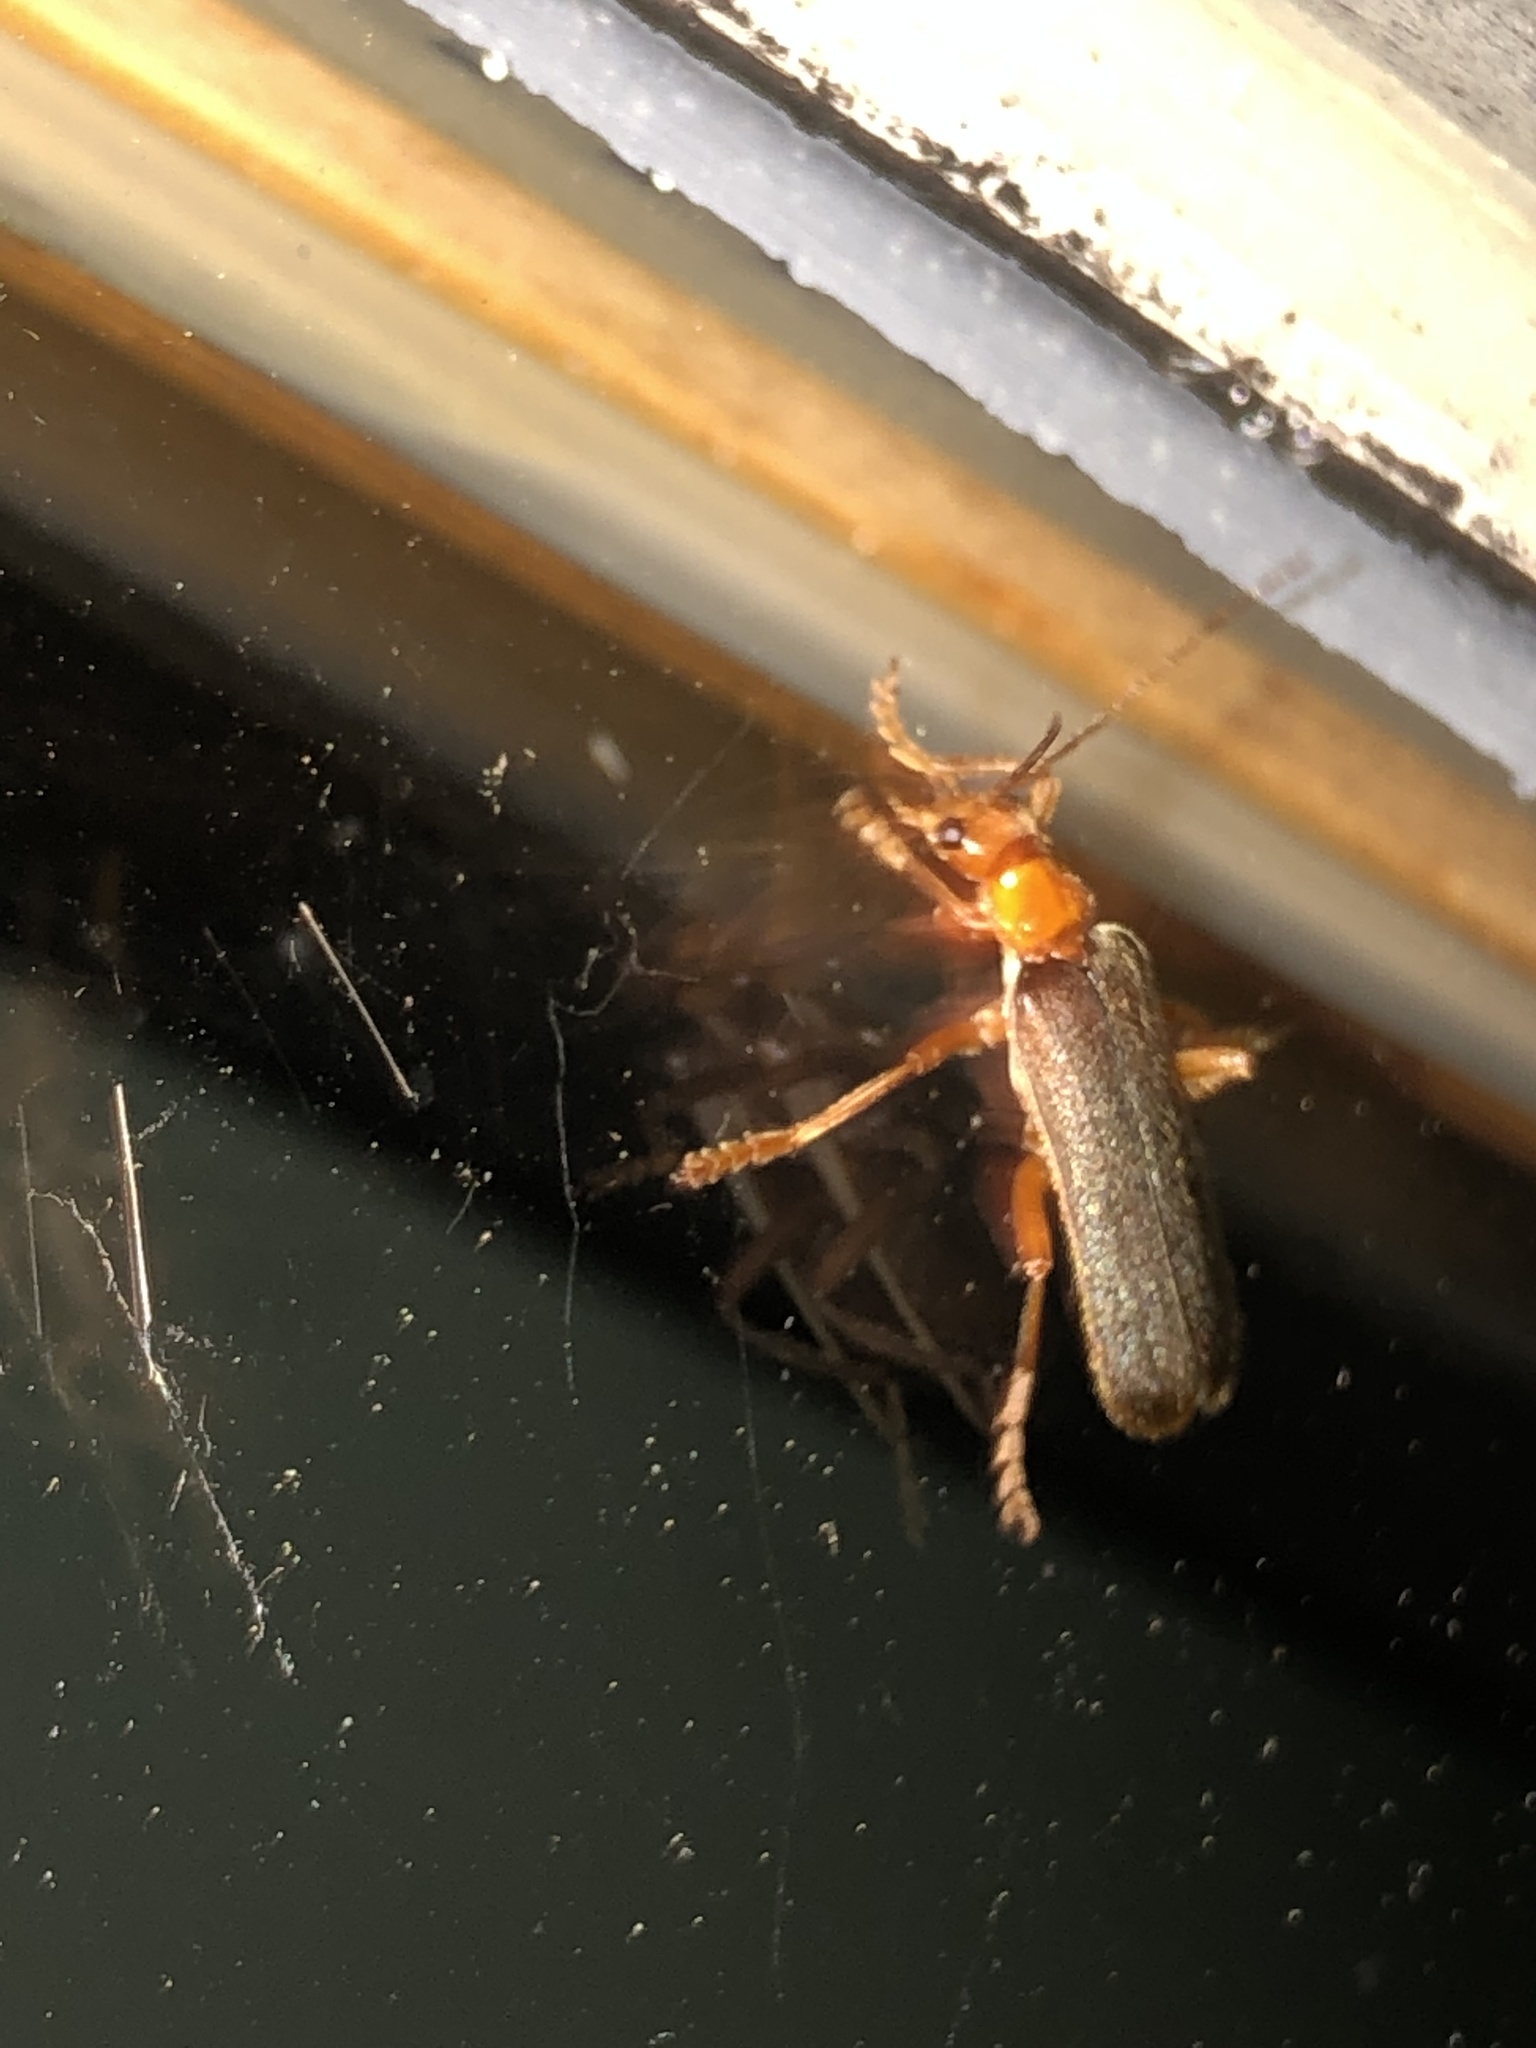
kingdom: Animalia
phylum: Arthropoda
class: Insecta
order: Coleoptera
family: Cantharidae
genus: Pacificanthia
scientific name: Pacificanthia rotundicollis
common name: Brown leatherwing beetle
